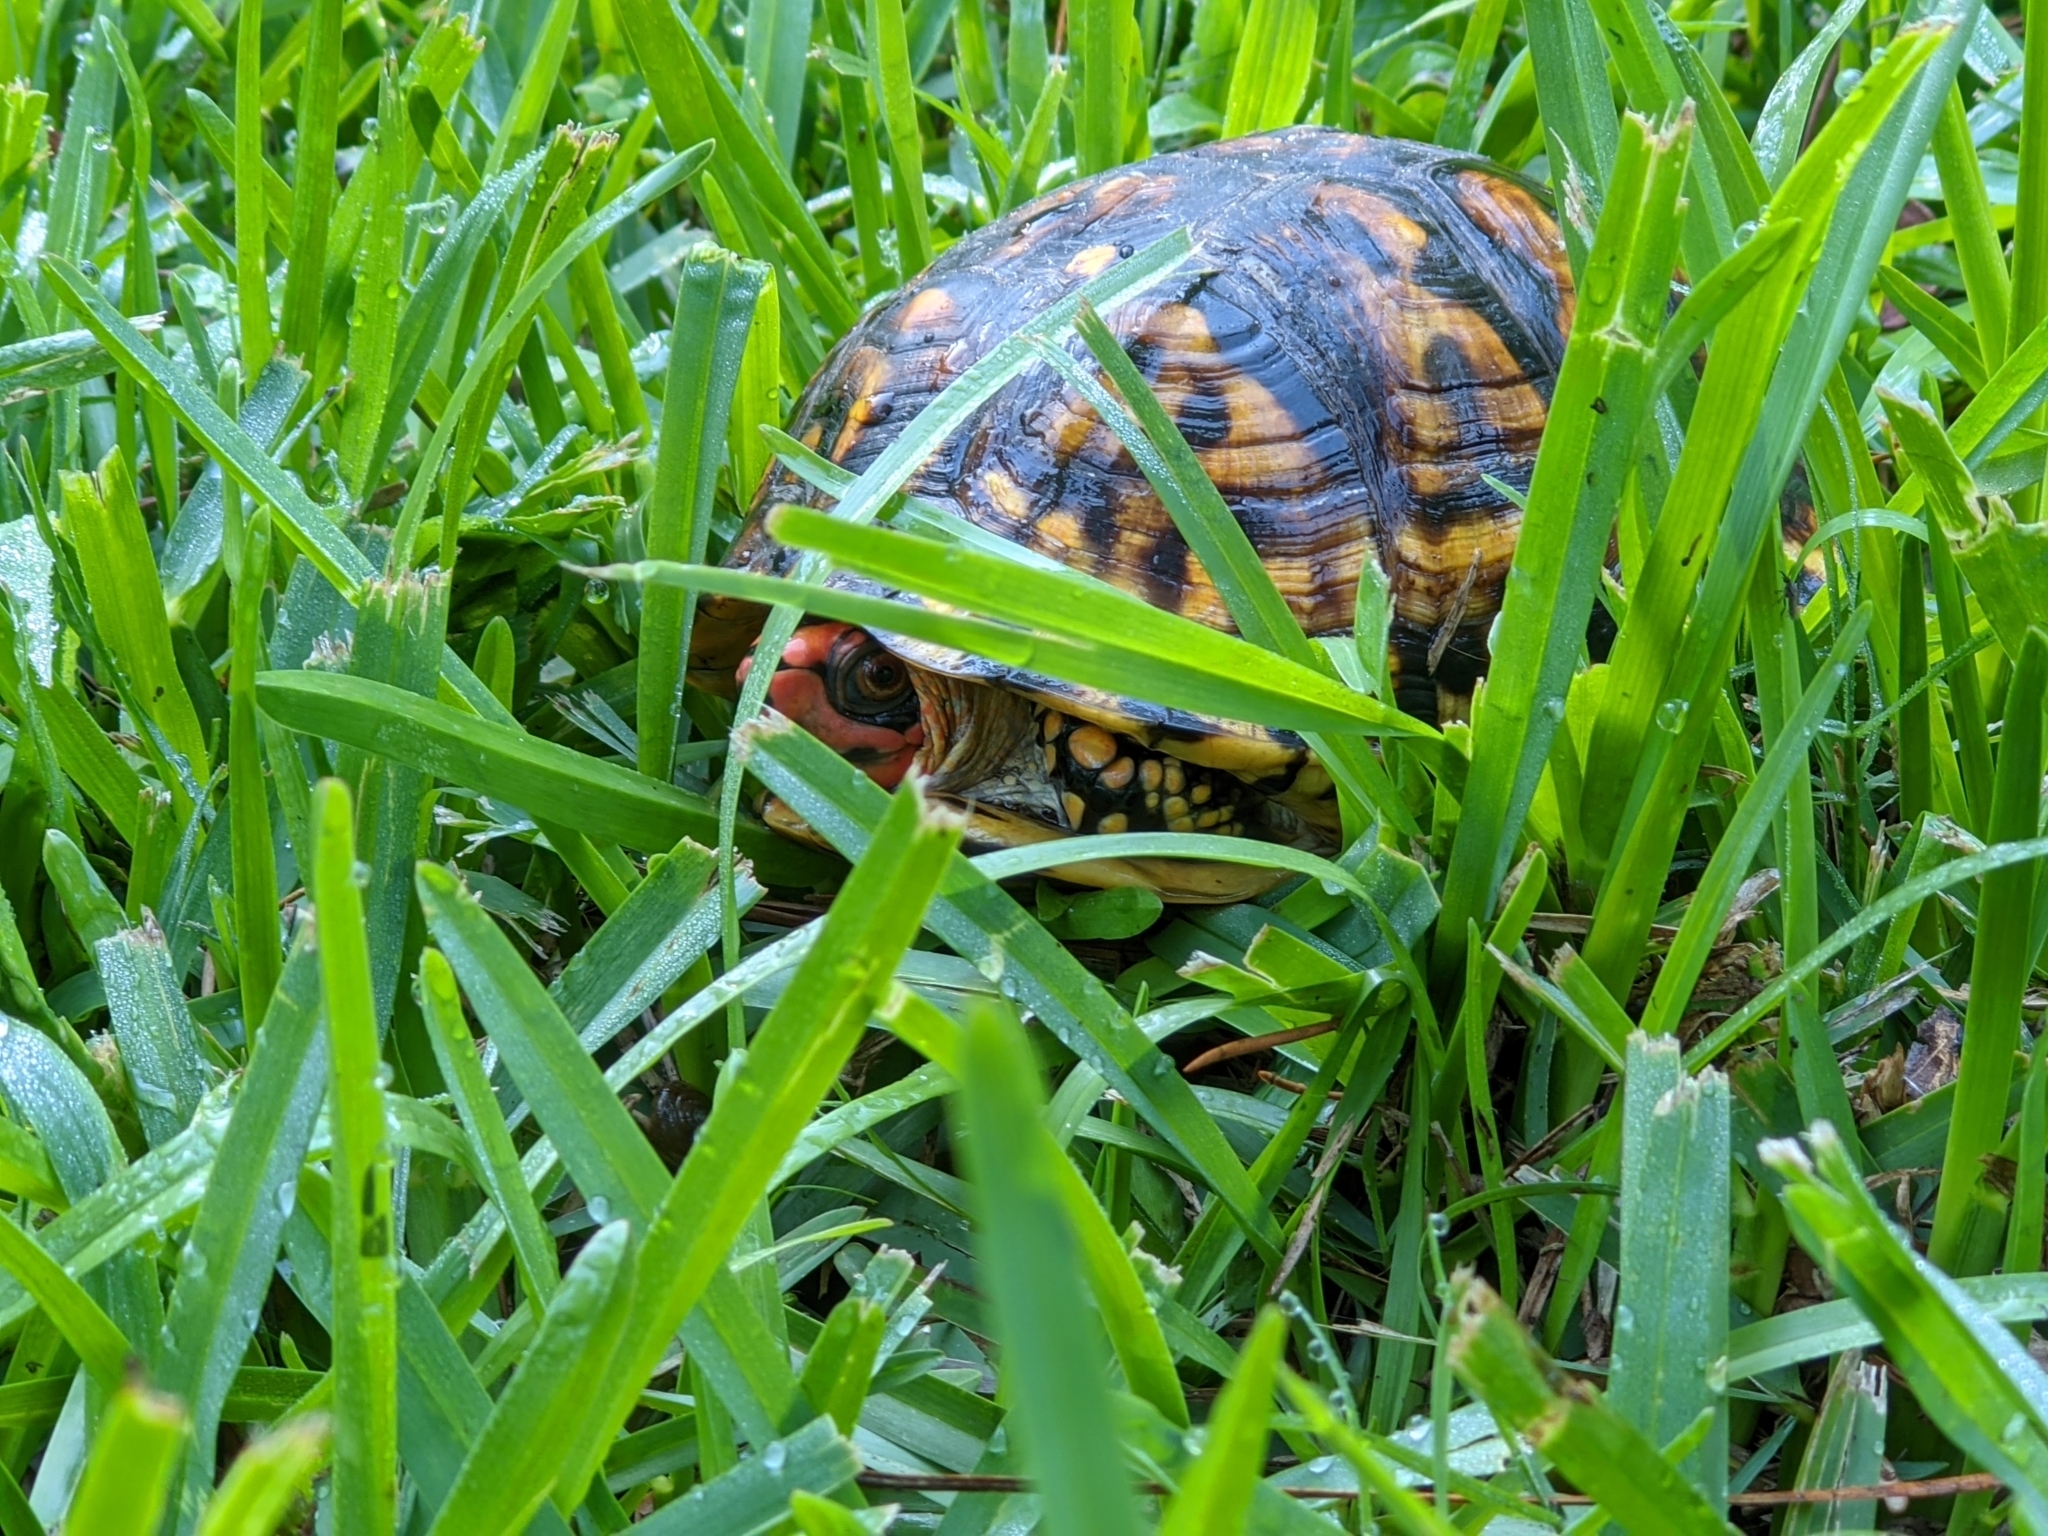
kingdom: Animalia
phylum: Chordata
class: Testudines
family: Emydidae
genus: Terrapene
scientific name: Terrapene carolina
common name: Common box turtle
